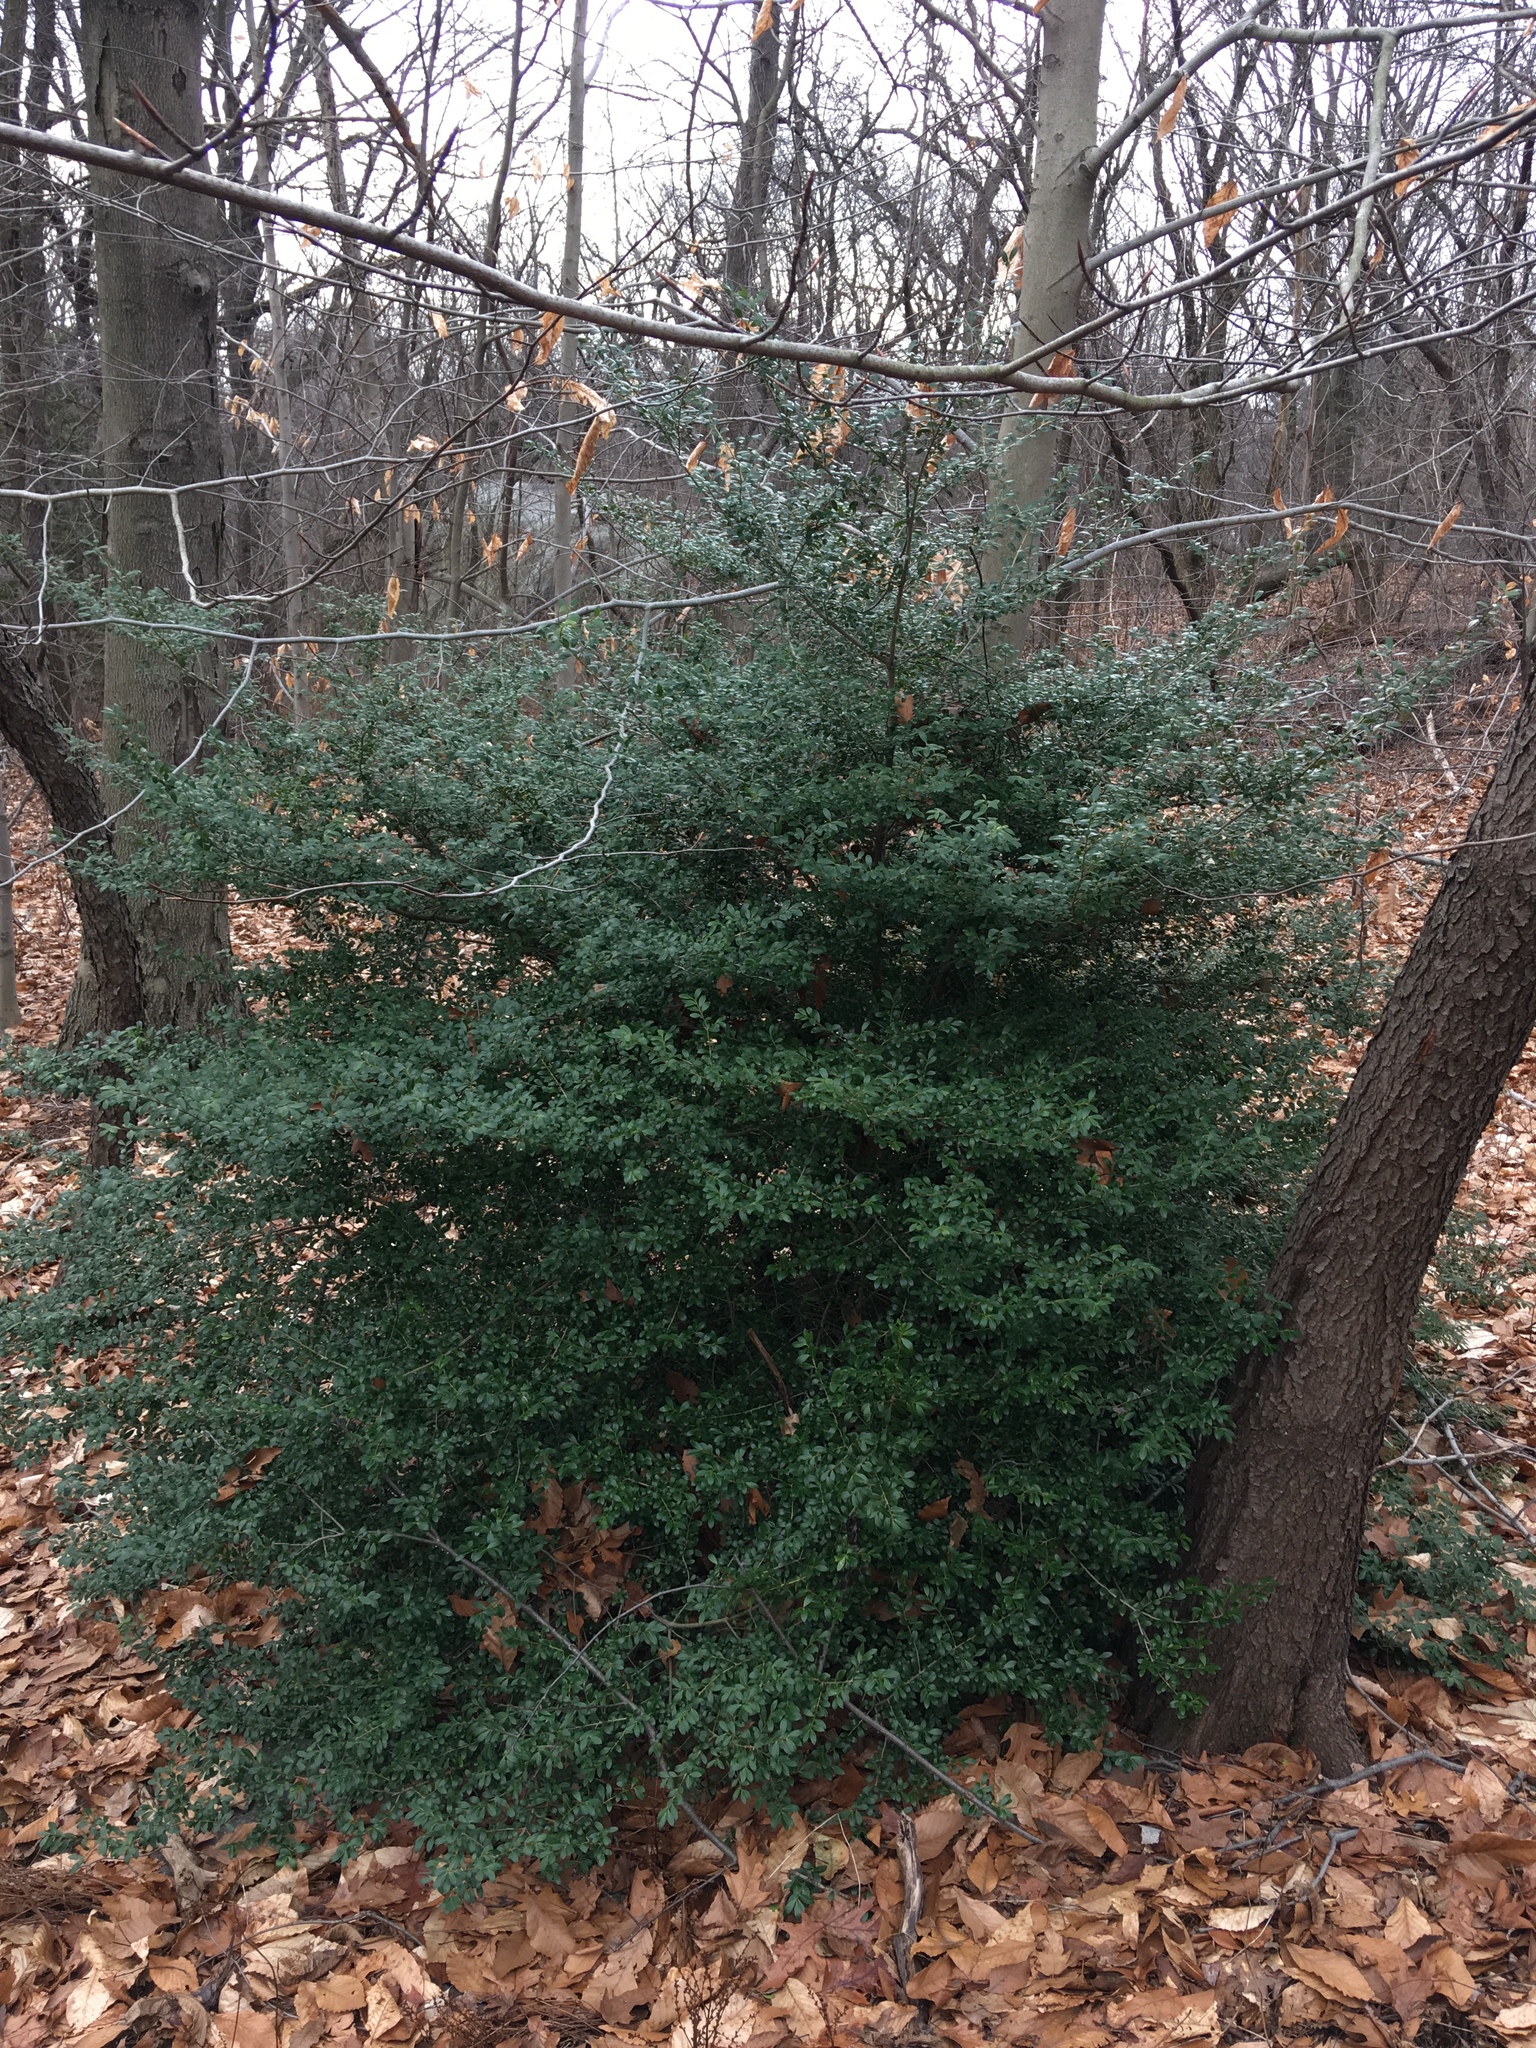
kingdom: Plantae
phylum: Tracheophyta
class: Magnoliopsida
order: Aquifoliales
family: Aquifoliaceae
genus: Ilex
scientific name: Ilex crenata
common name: Japanese holly
